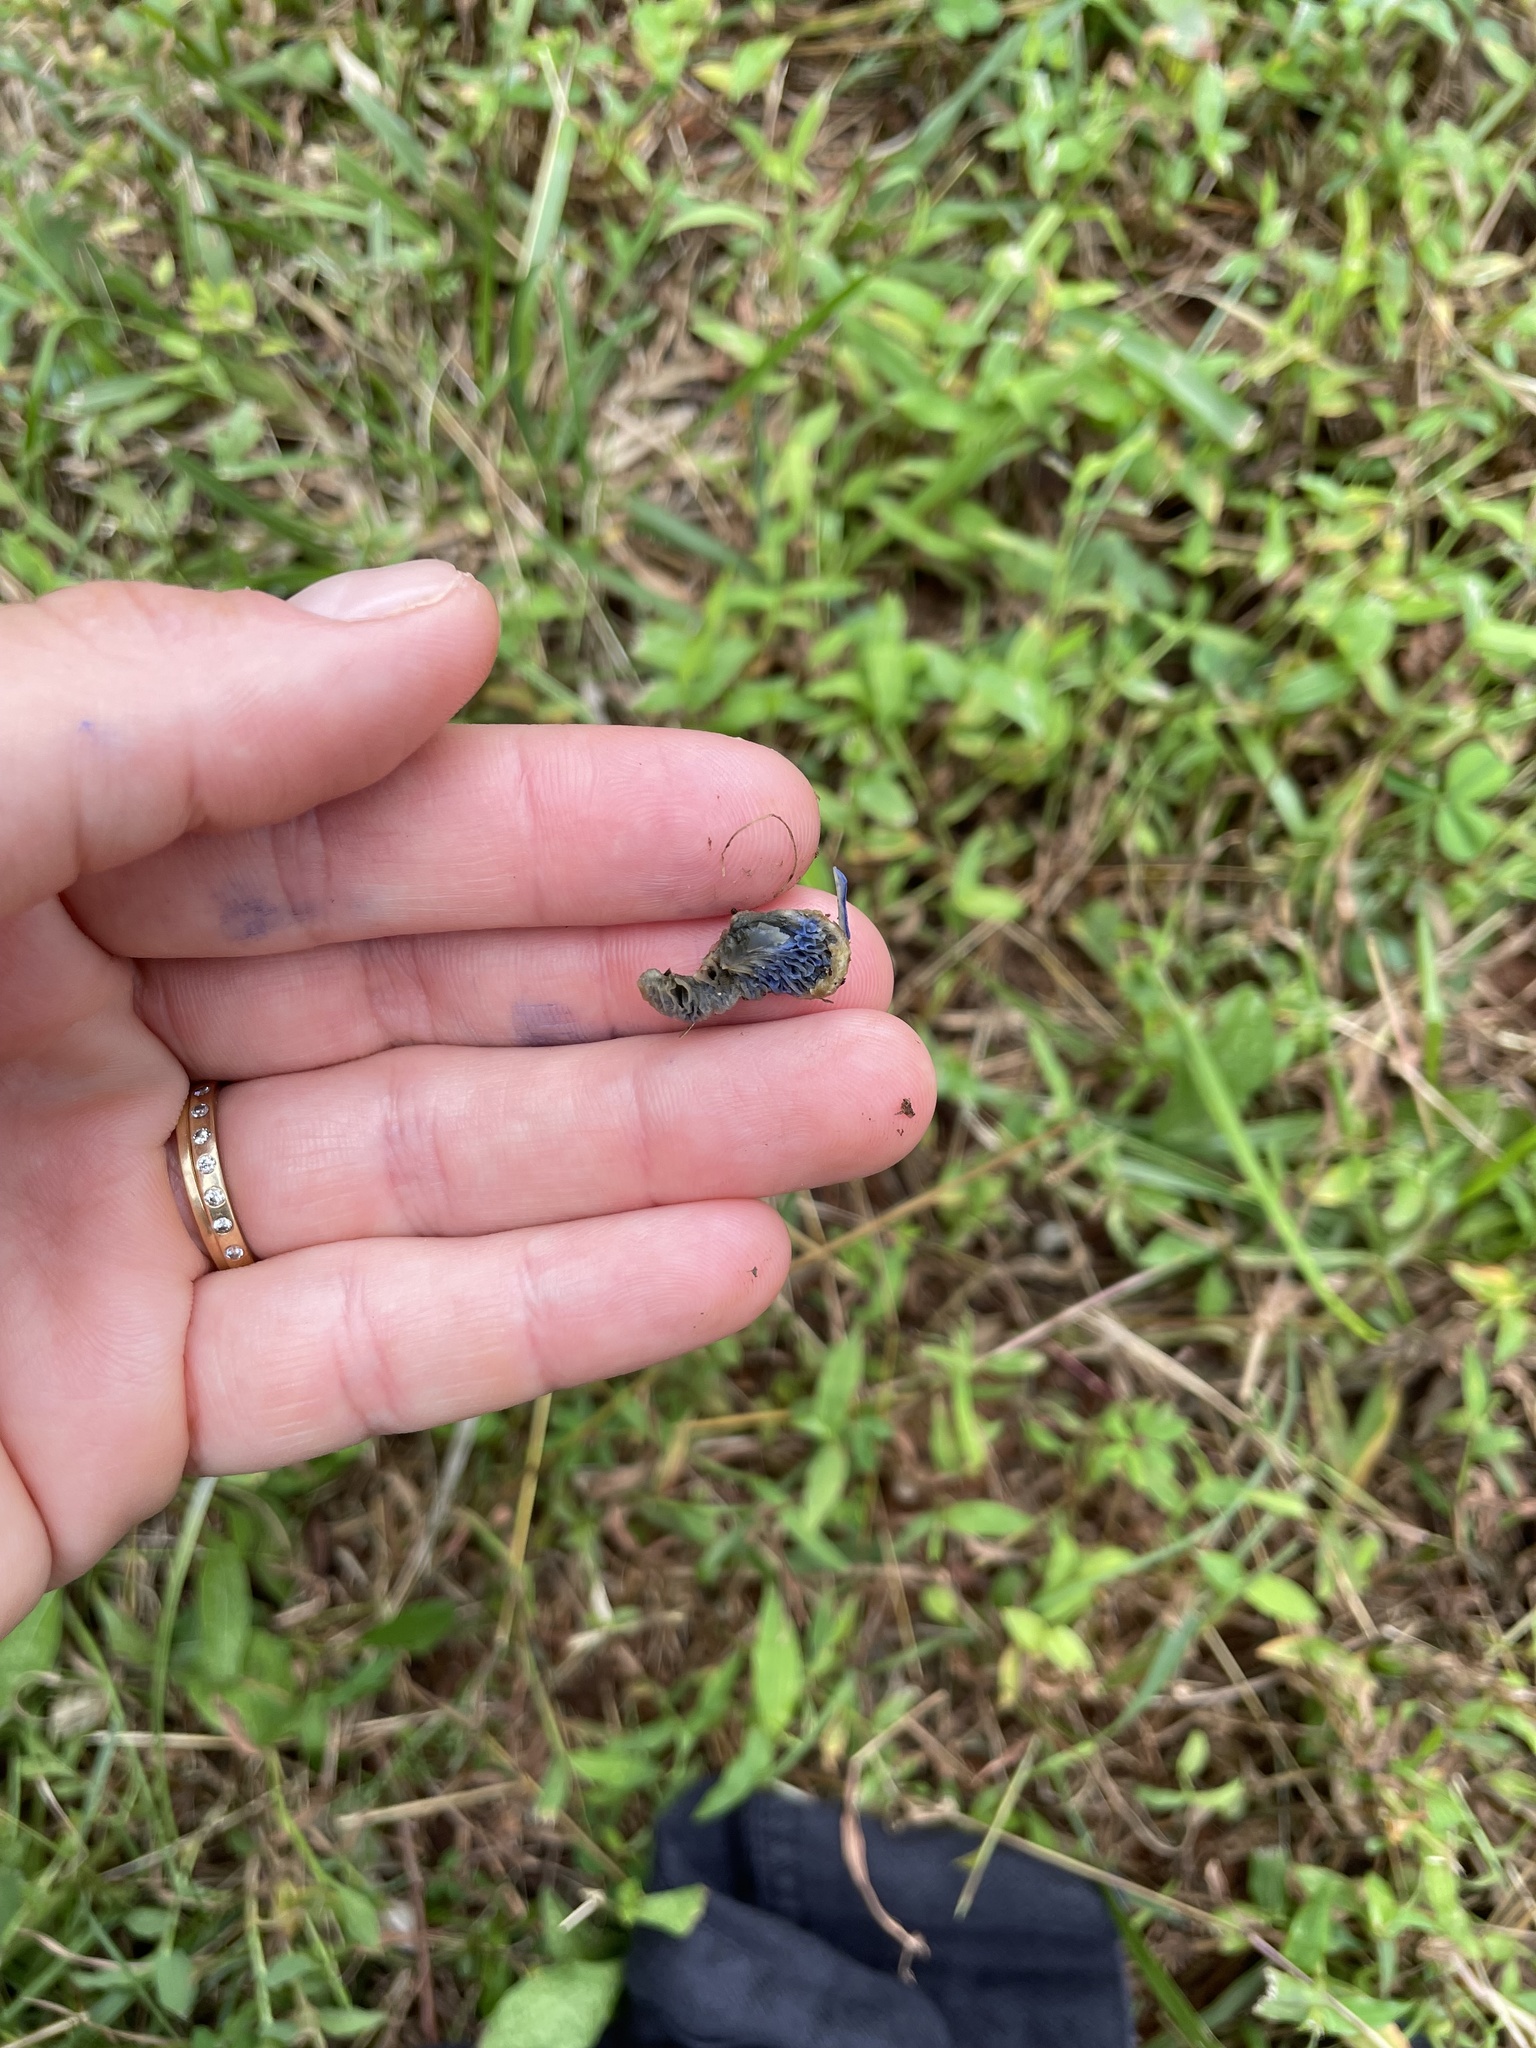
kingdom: Fungi
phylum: Basidiomycota
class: Agaricomycetes
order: Russulales
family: Russulaceae
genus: Lactarius
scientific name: Lactarius indigo
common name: Indigo milk cap
